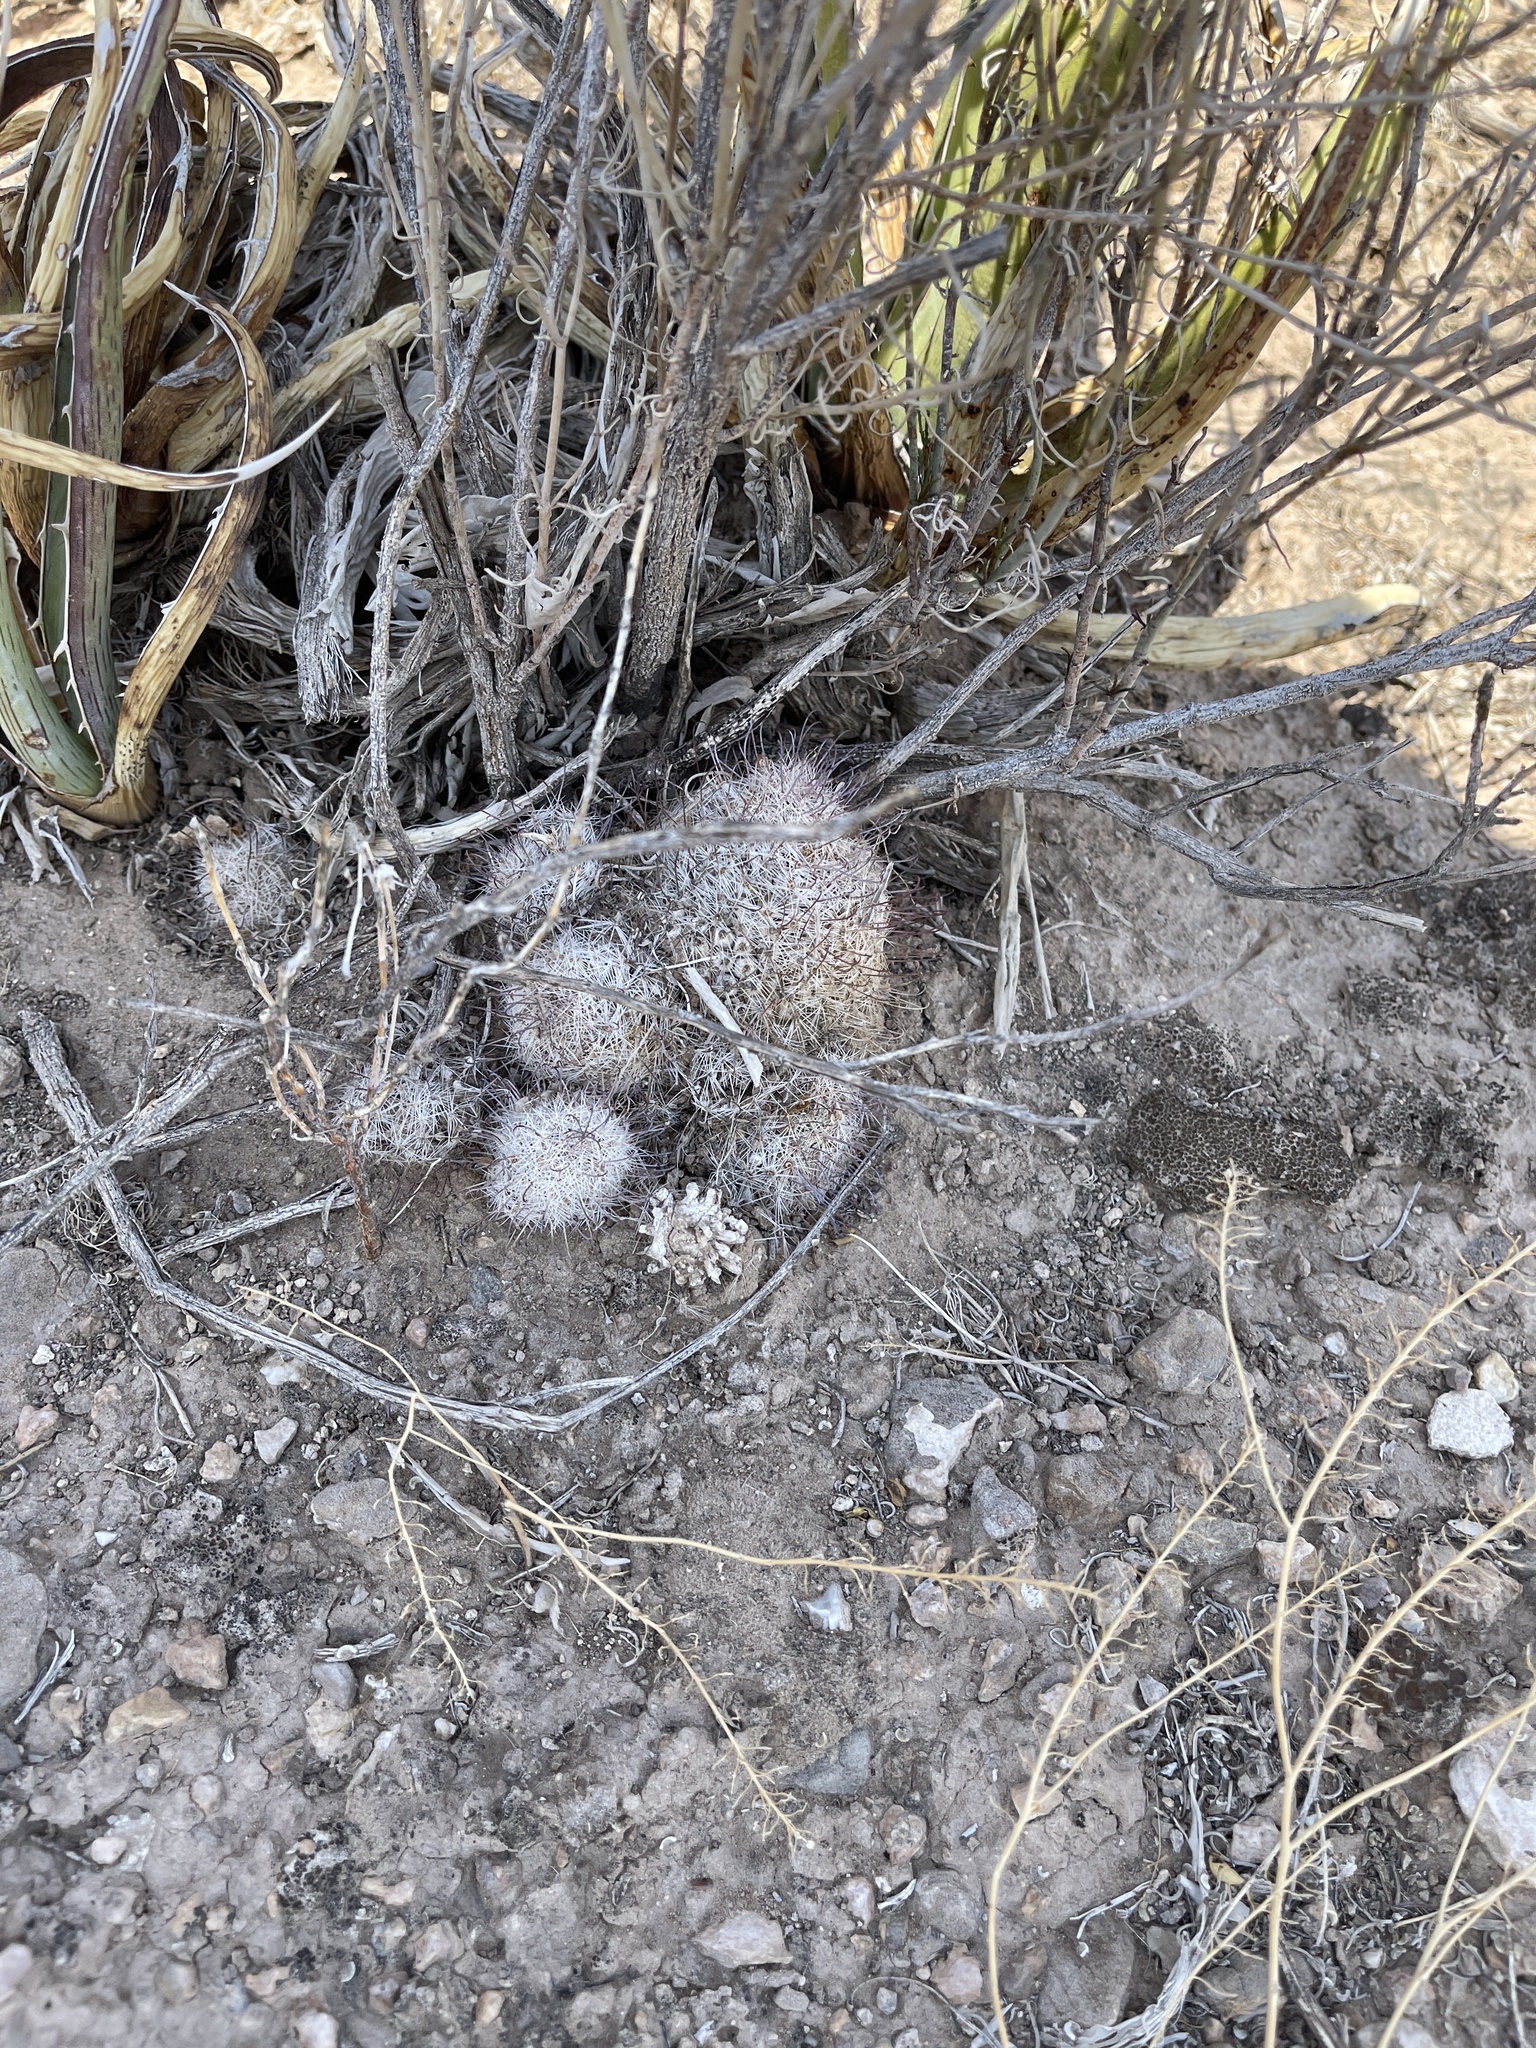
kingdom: Plantae
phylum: Tracheophyta
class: Magnoliopsida
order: Caryophyllales
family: Cactaceae
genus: Cochemiea
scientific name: Cochemiea grahamii
